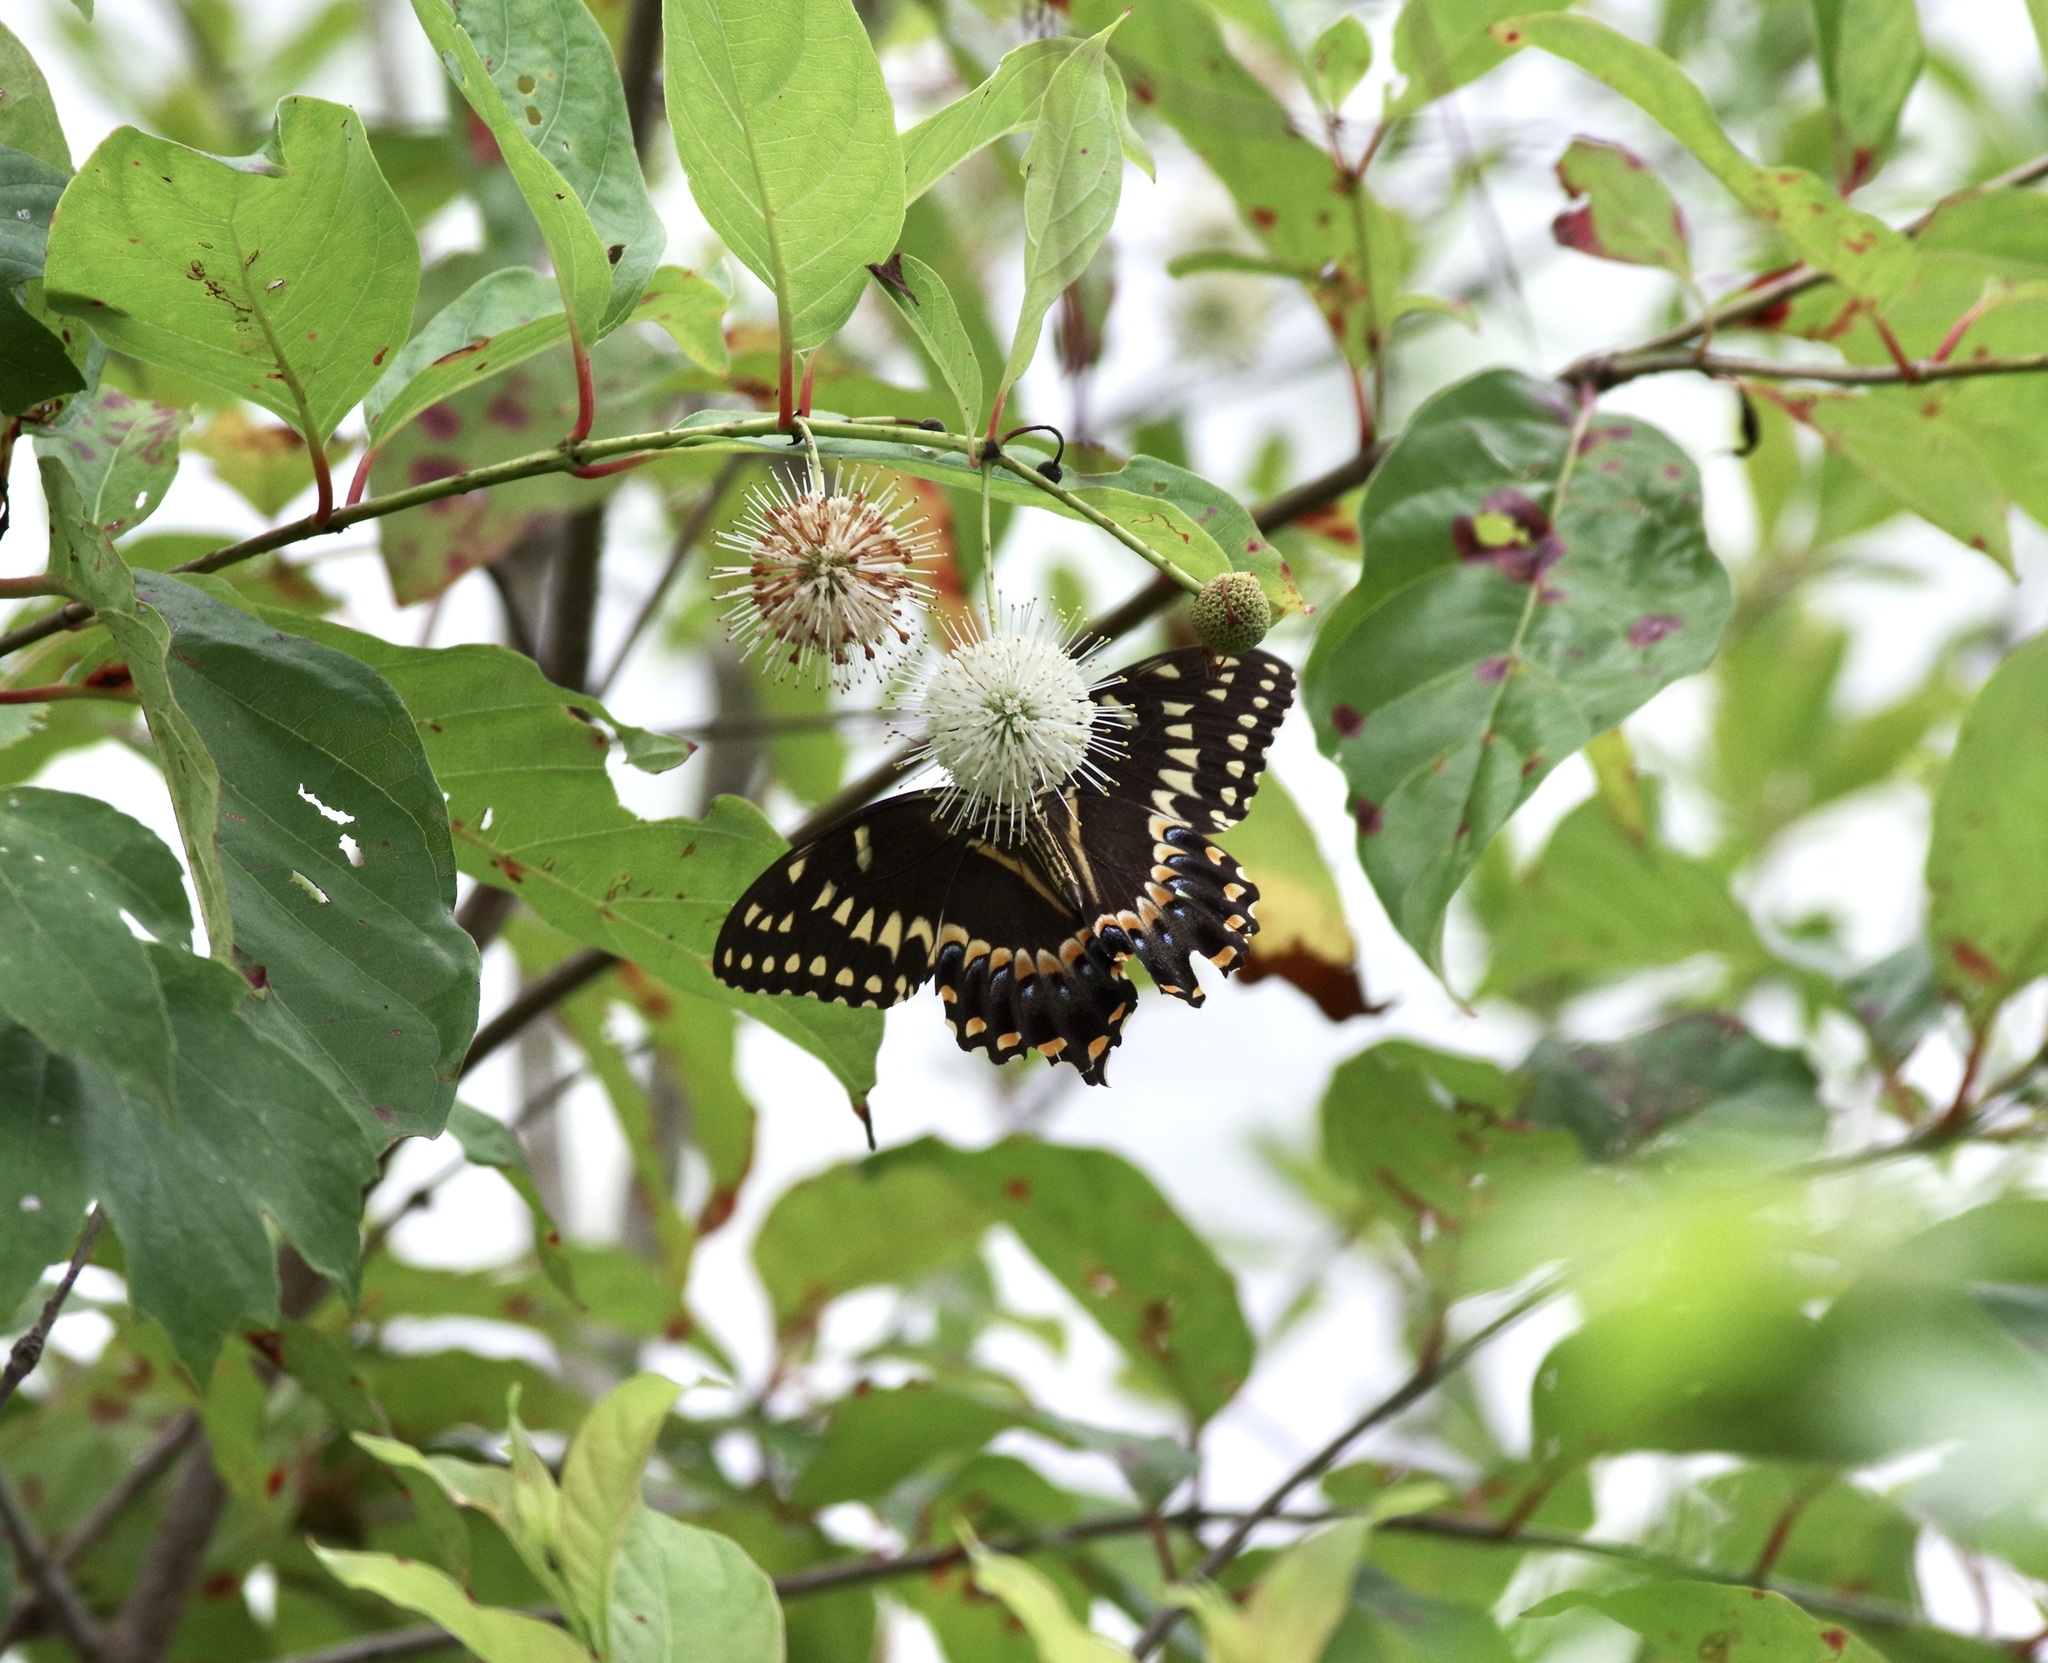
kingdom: Animalia
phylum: Arthropoda
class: Insecta
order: Lepidoptera
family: Papilionidae
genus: Papilio
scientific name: Papilio palamedes
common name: Palamedes swallowtail
